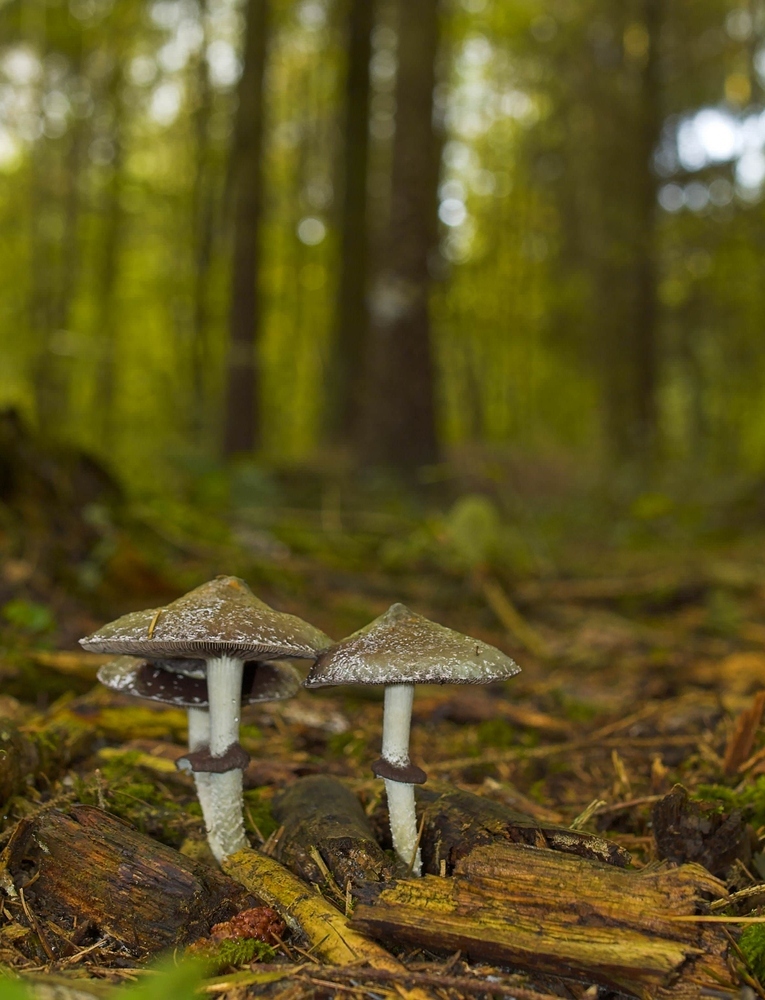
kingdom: Fungi
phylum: Basidiomycota
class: Agaricomycetes
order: Agaricales
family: Strophariaceae
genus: Stropharia
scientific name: Stropharia aeruginosa
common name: Verdigris roundhead
